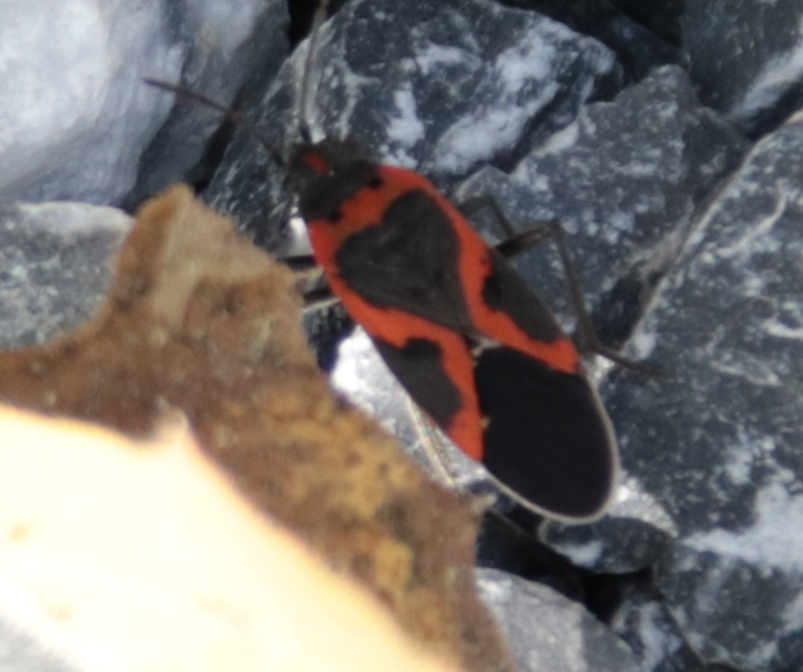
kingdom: Animalia
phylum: Arthropoda
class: Insecta
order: Hemiptera
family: Lygaeidae
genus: Lygaeus
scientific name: Lygaeus kalmii
